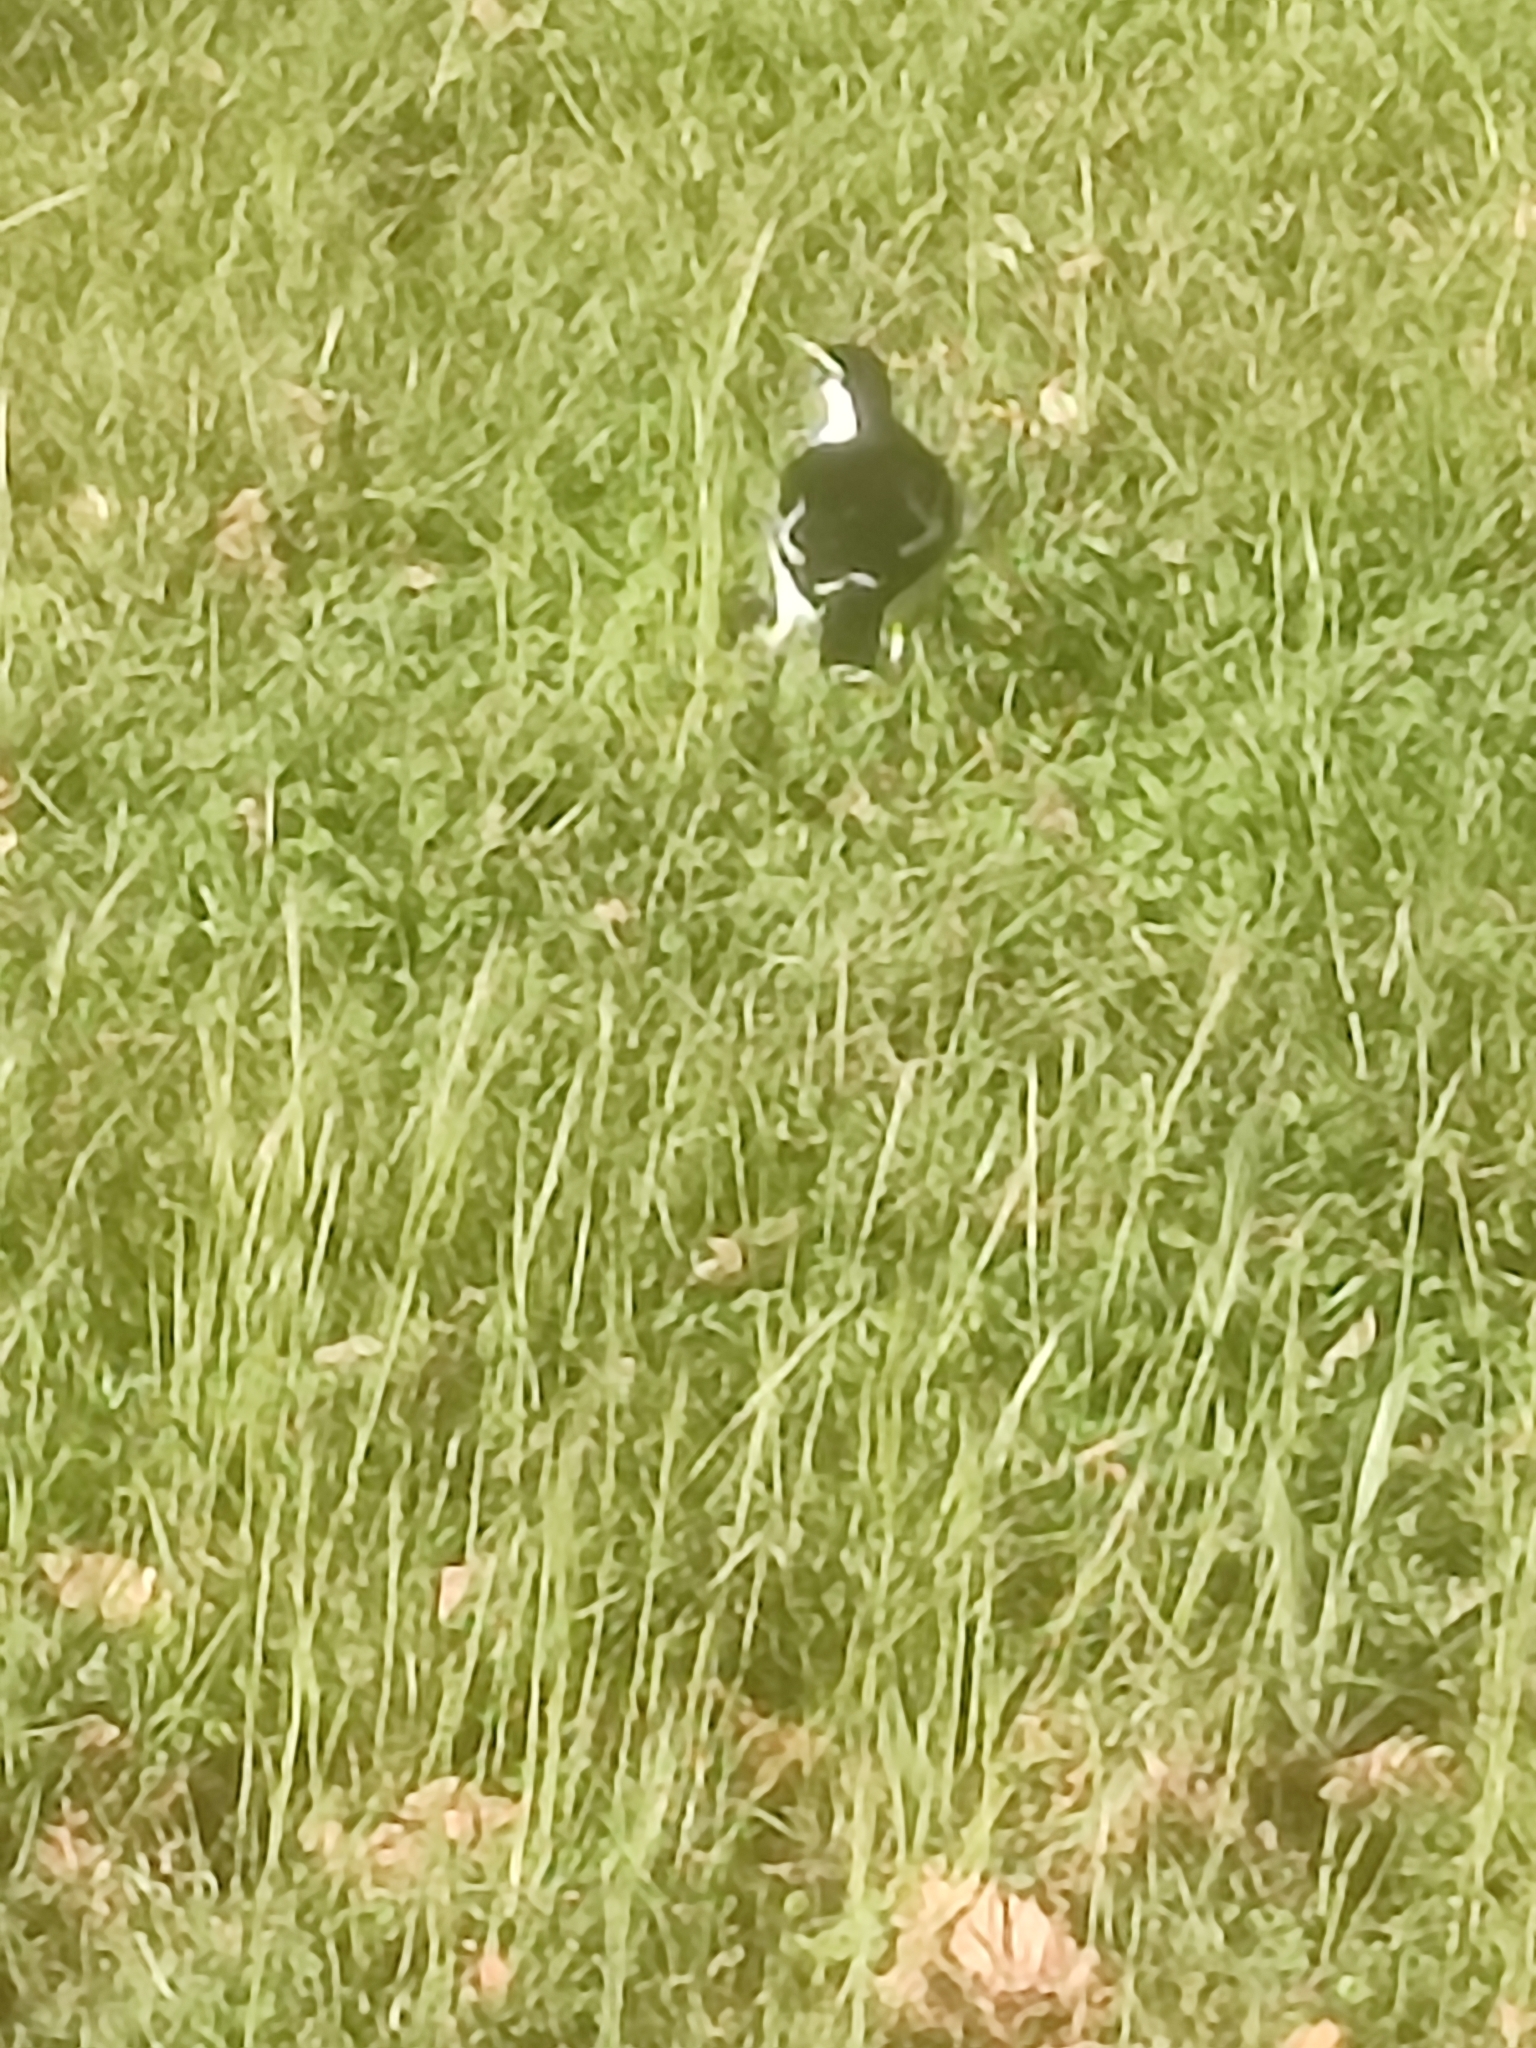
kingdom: Animalia
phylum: Chordata
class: Aves
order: Passeriformes
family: Monarchidae
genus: Grallina
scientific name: Grallina cyanoleuca
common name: Magpie-lark
